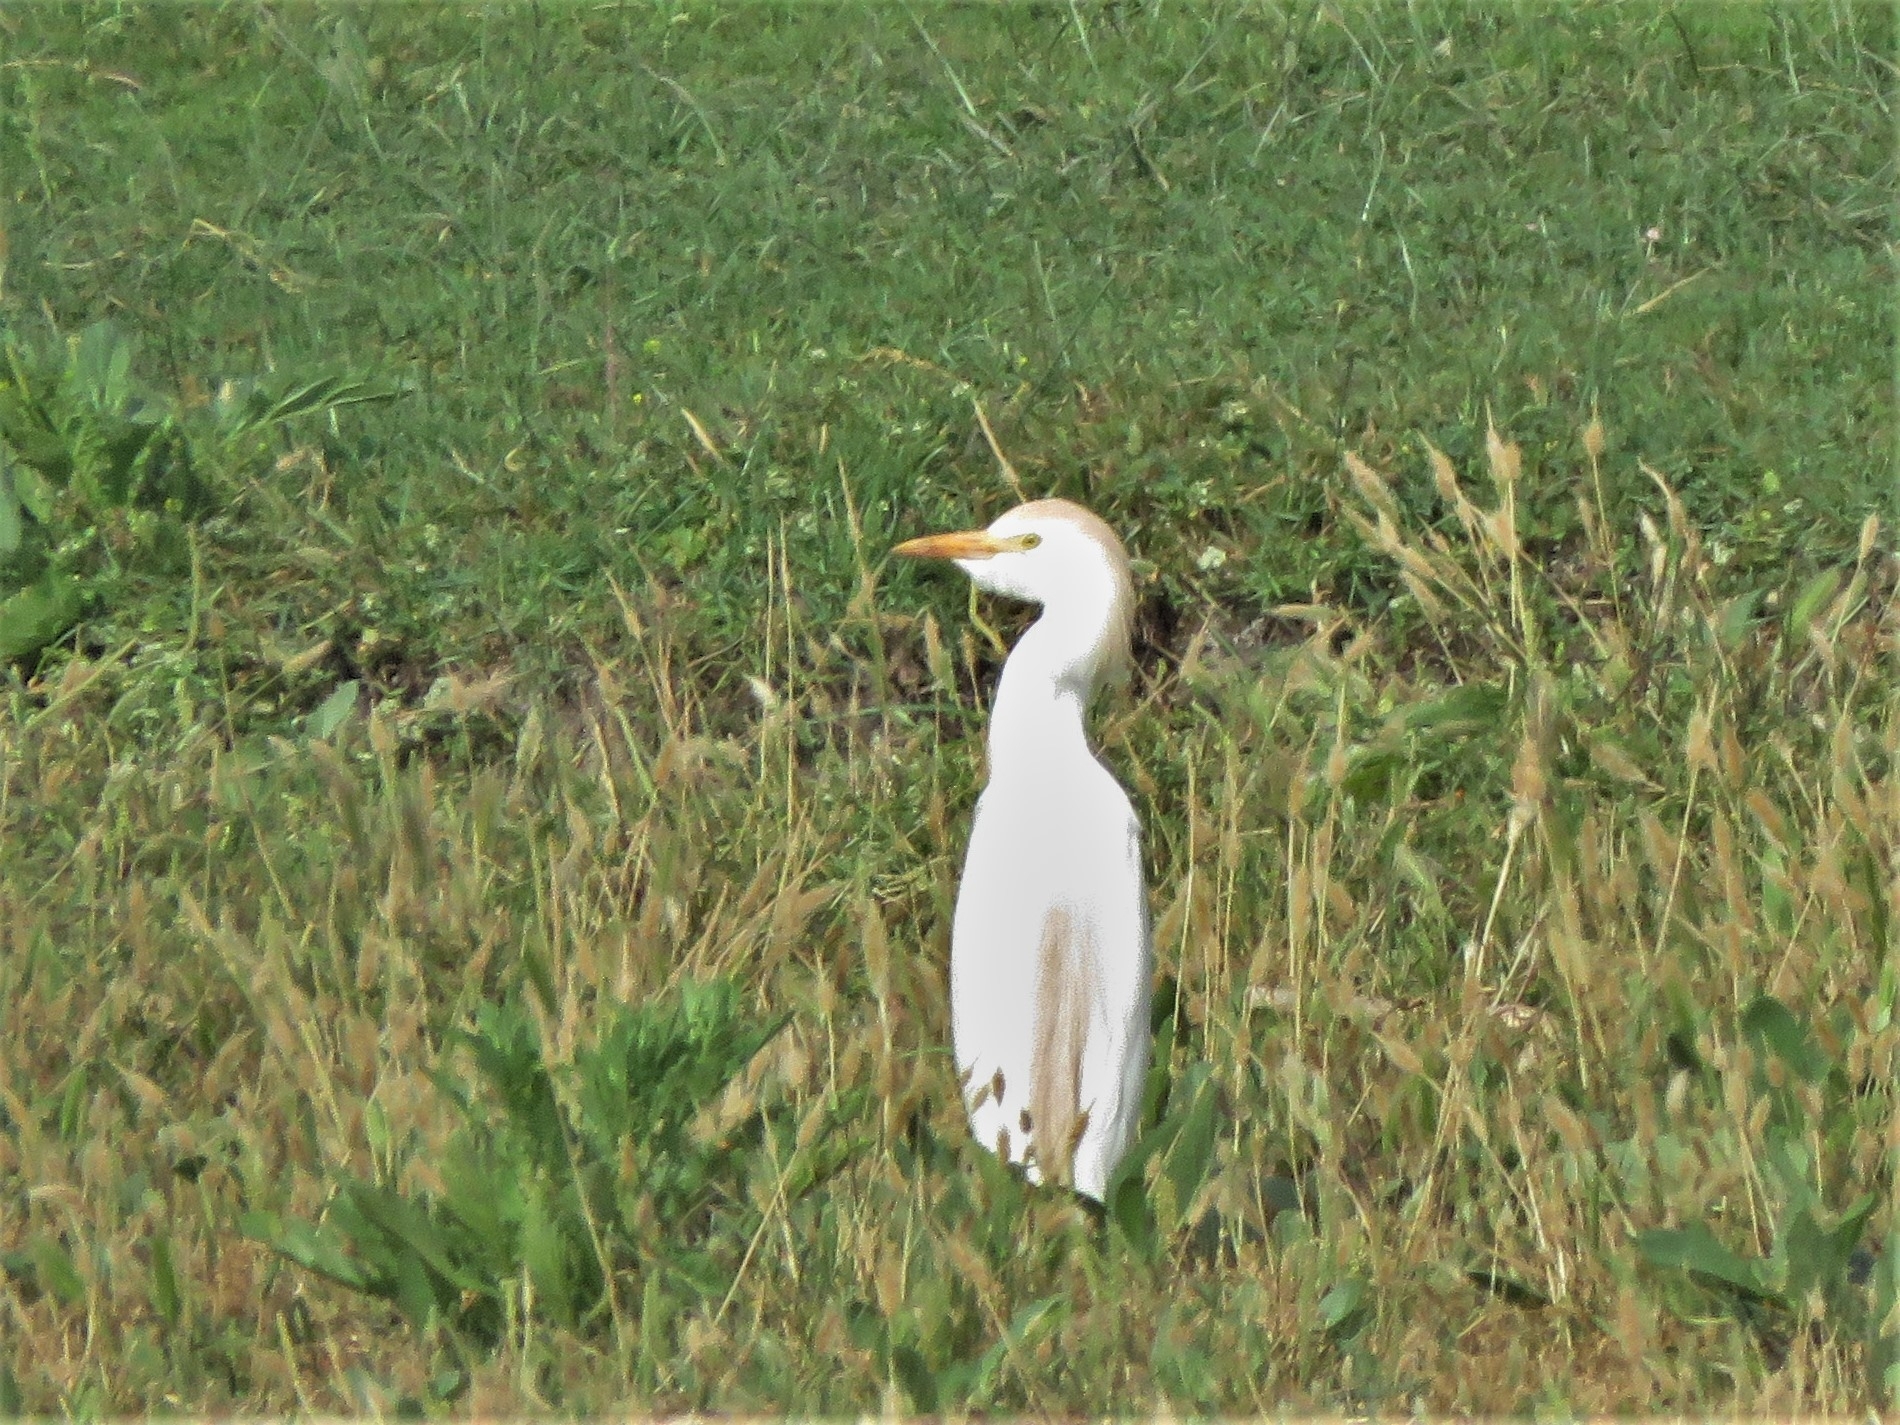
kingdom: Animalia
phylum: Chordata
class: Aves
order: Pelecaniformes
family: Ardeidae
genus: Bubulcus
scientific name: Bubulcus ibis
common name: Cattle egret
